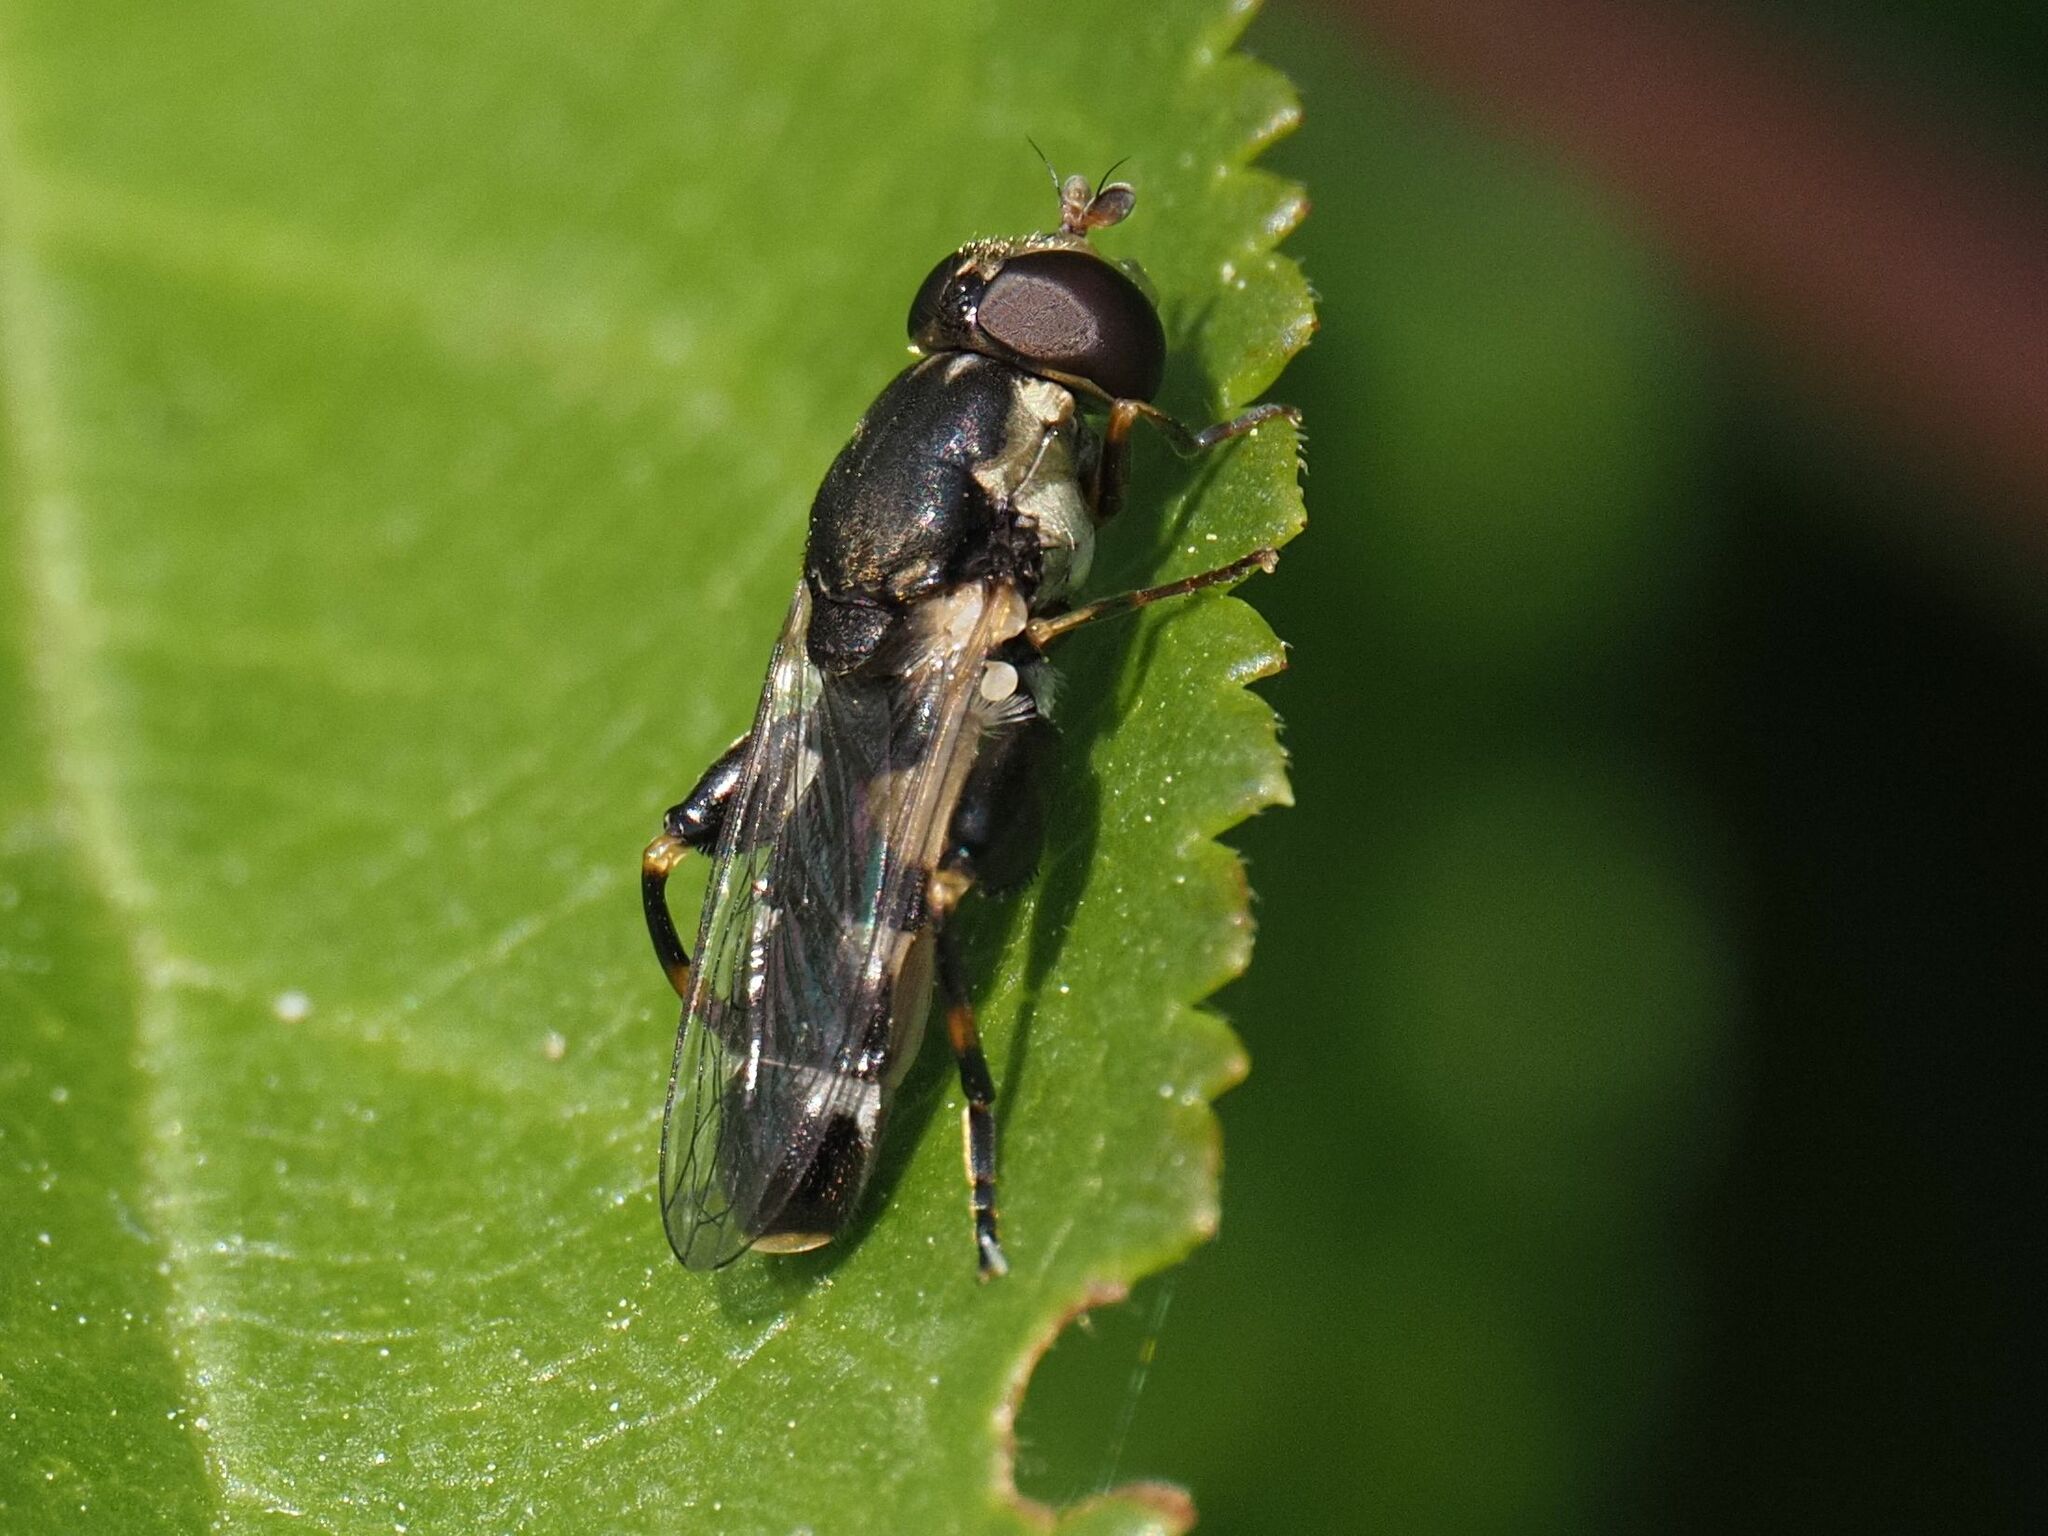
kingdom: Animalia
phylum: Arthropoda
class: Insecta
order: Diptera
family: Syrphidae
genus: Syritta
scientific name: Syritta pipiens
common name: Hover fly
